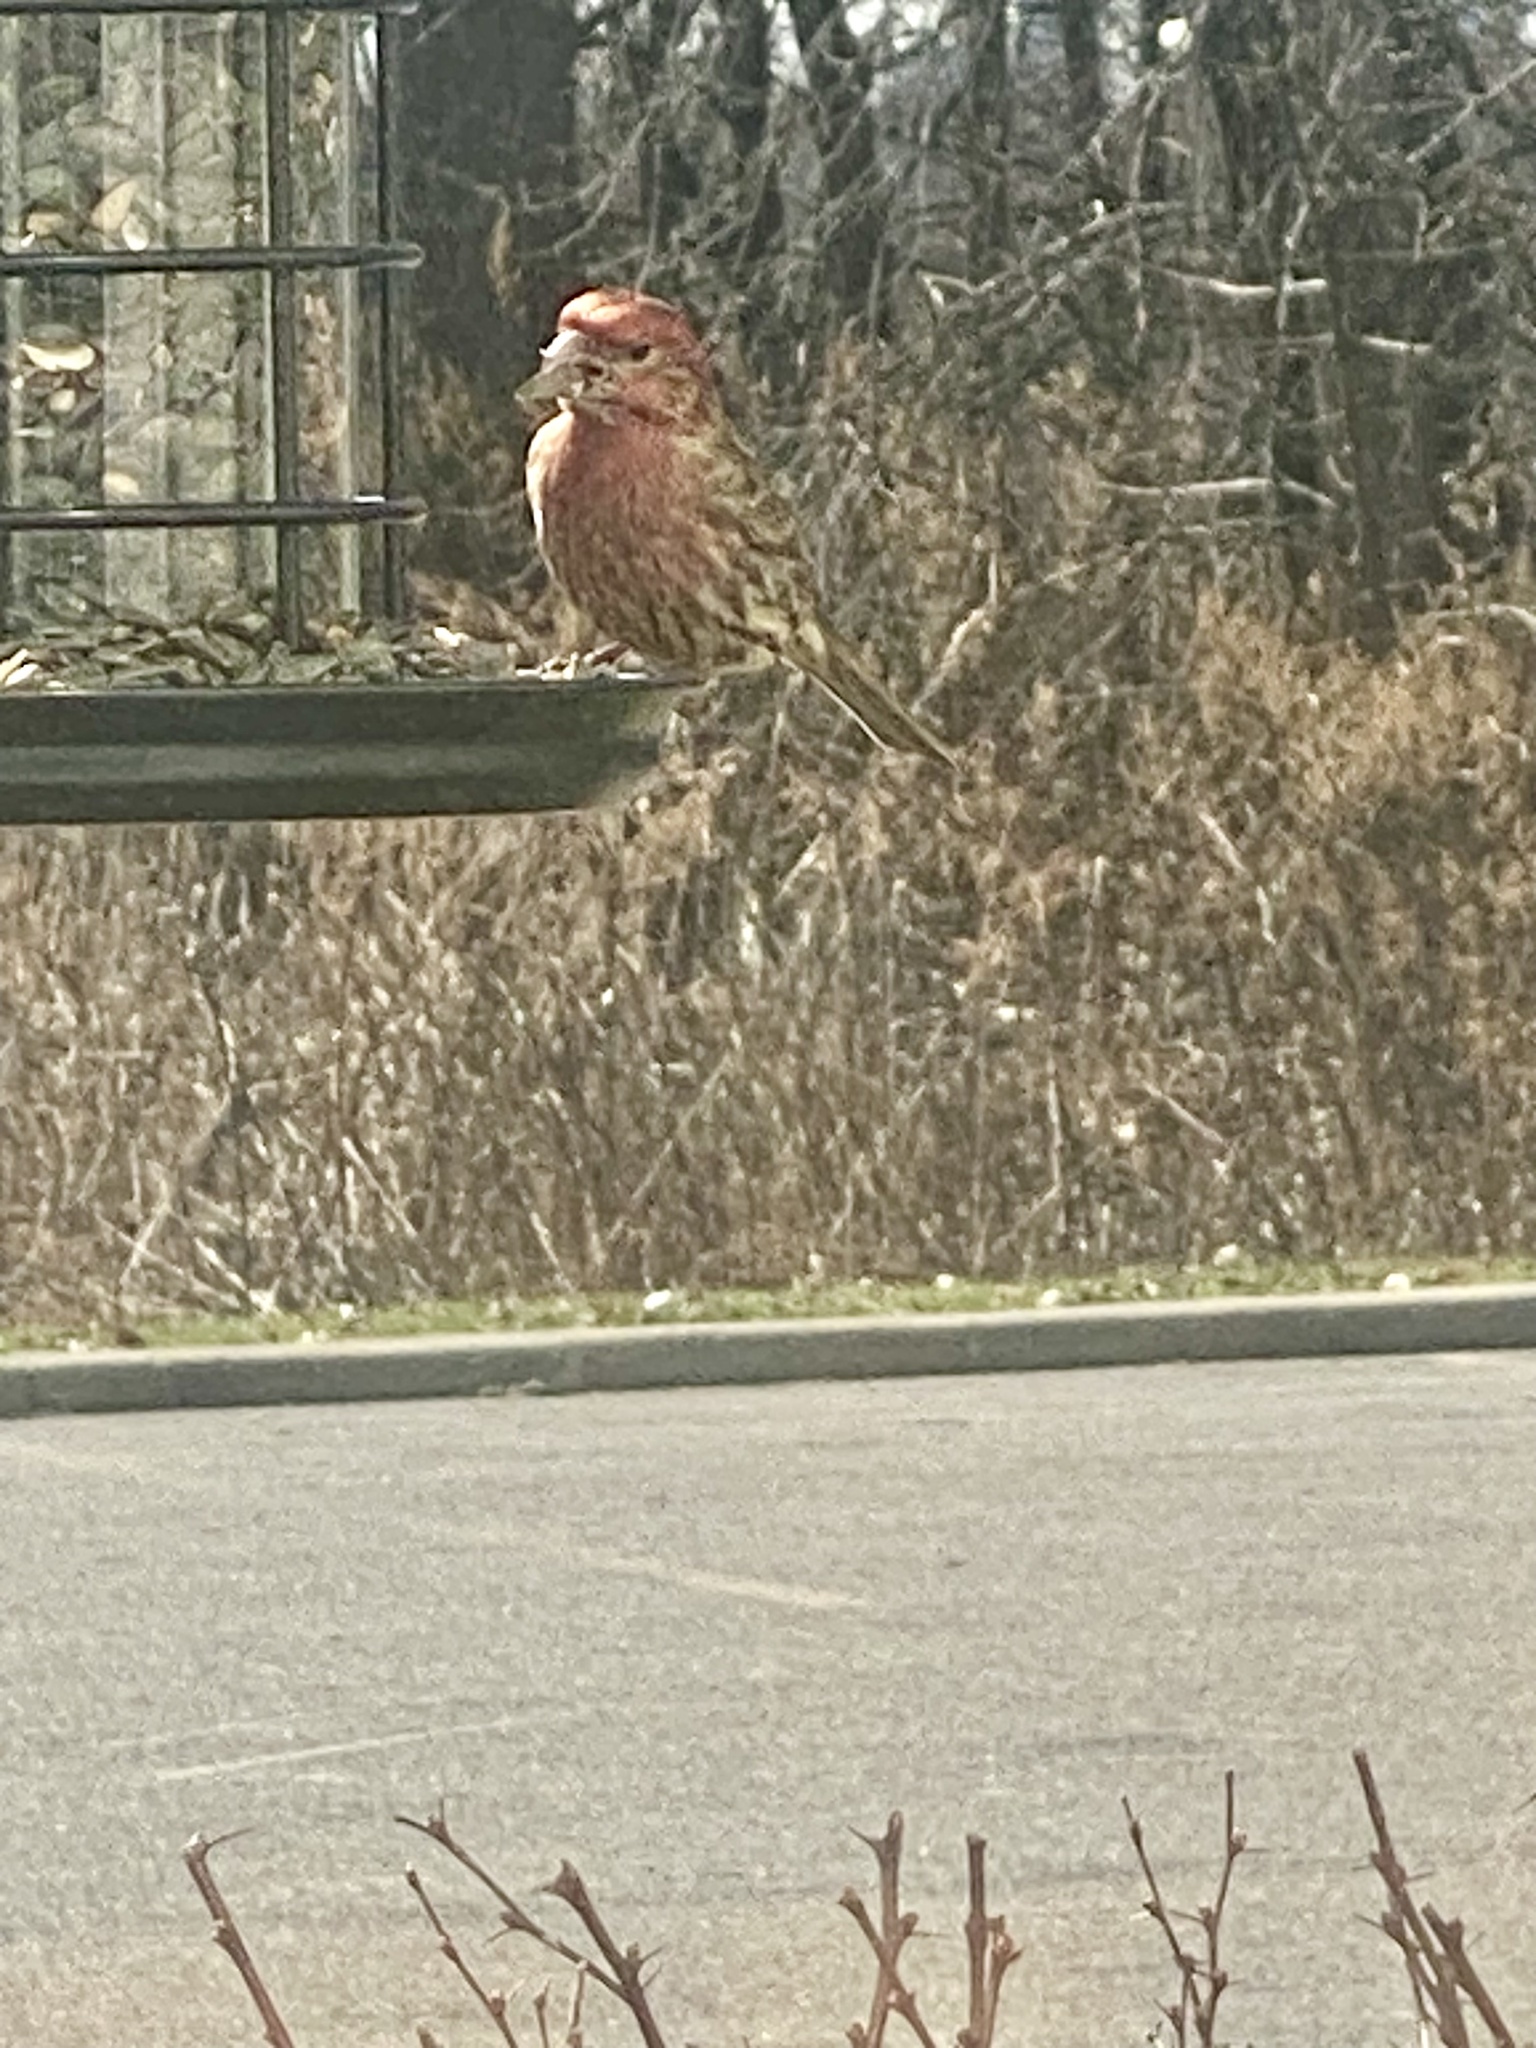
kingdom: Animalia
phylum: Chordata
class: Aves
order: Passeriformes
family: Fringillidae
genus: Haemorhous
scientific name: Haemorhous mexicanus
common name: House finch
